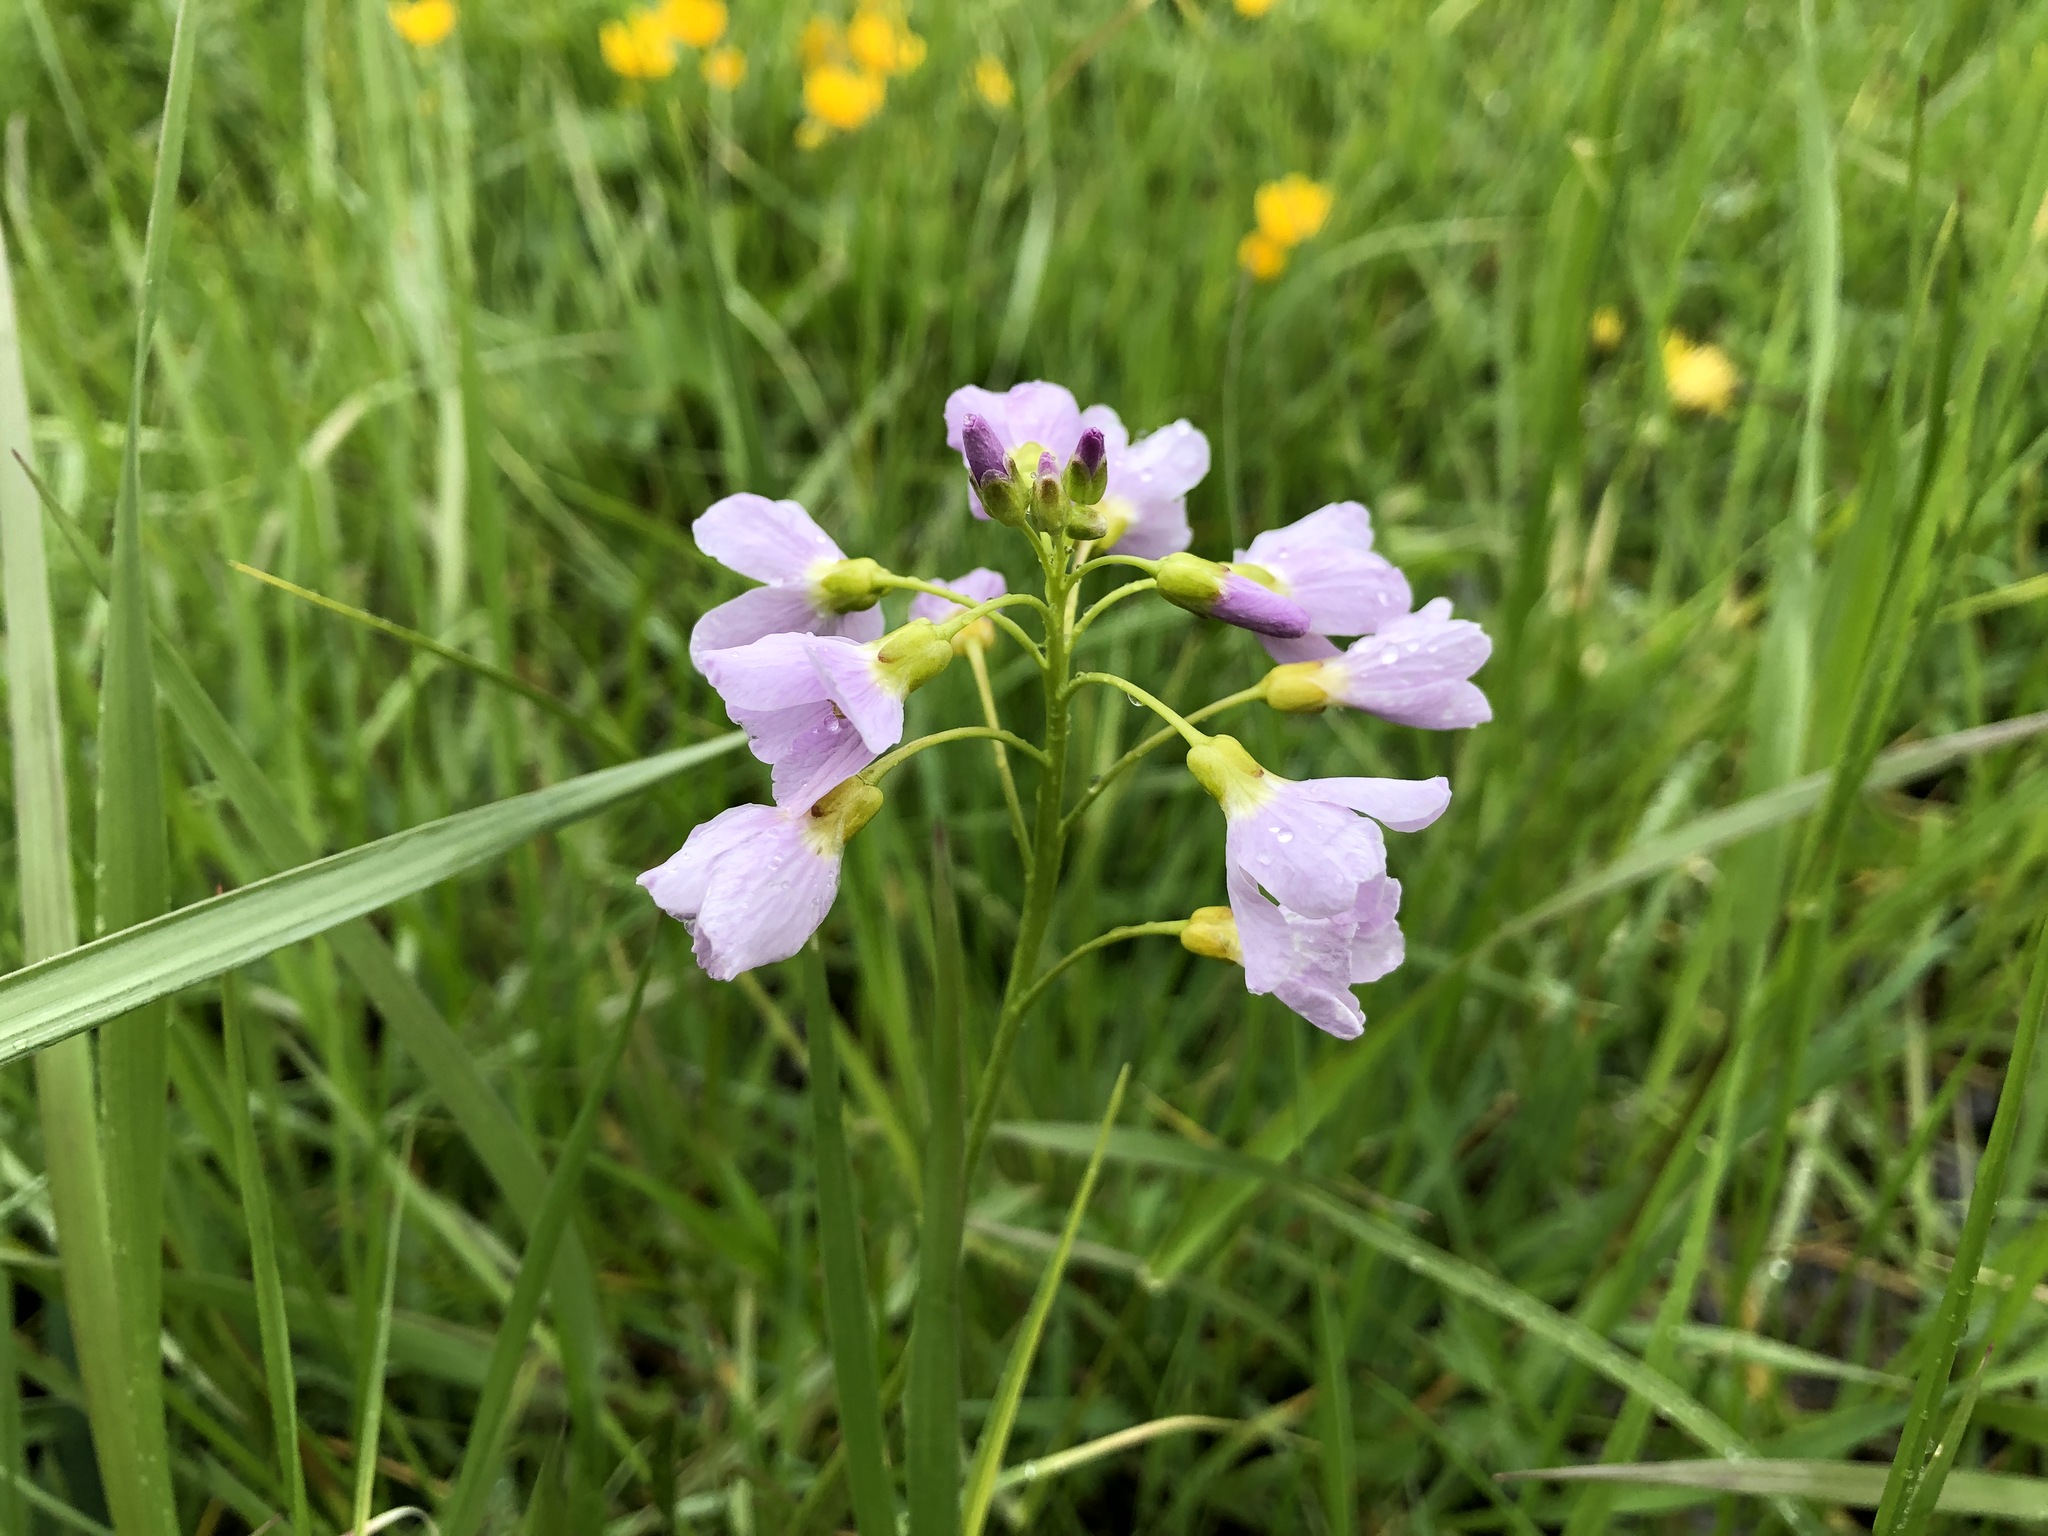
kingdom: Plantae
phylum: Tracheophyta
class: Magnoliopsida
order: Brassicales
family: Brassicaceae
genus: Cardamine
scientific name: Cardamine pratensis
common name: Cuckoo flower
